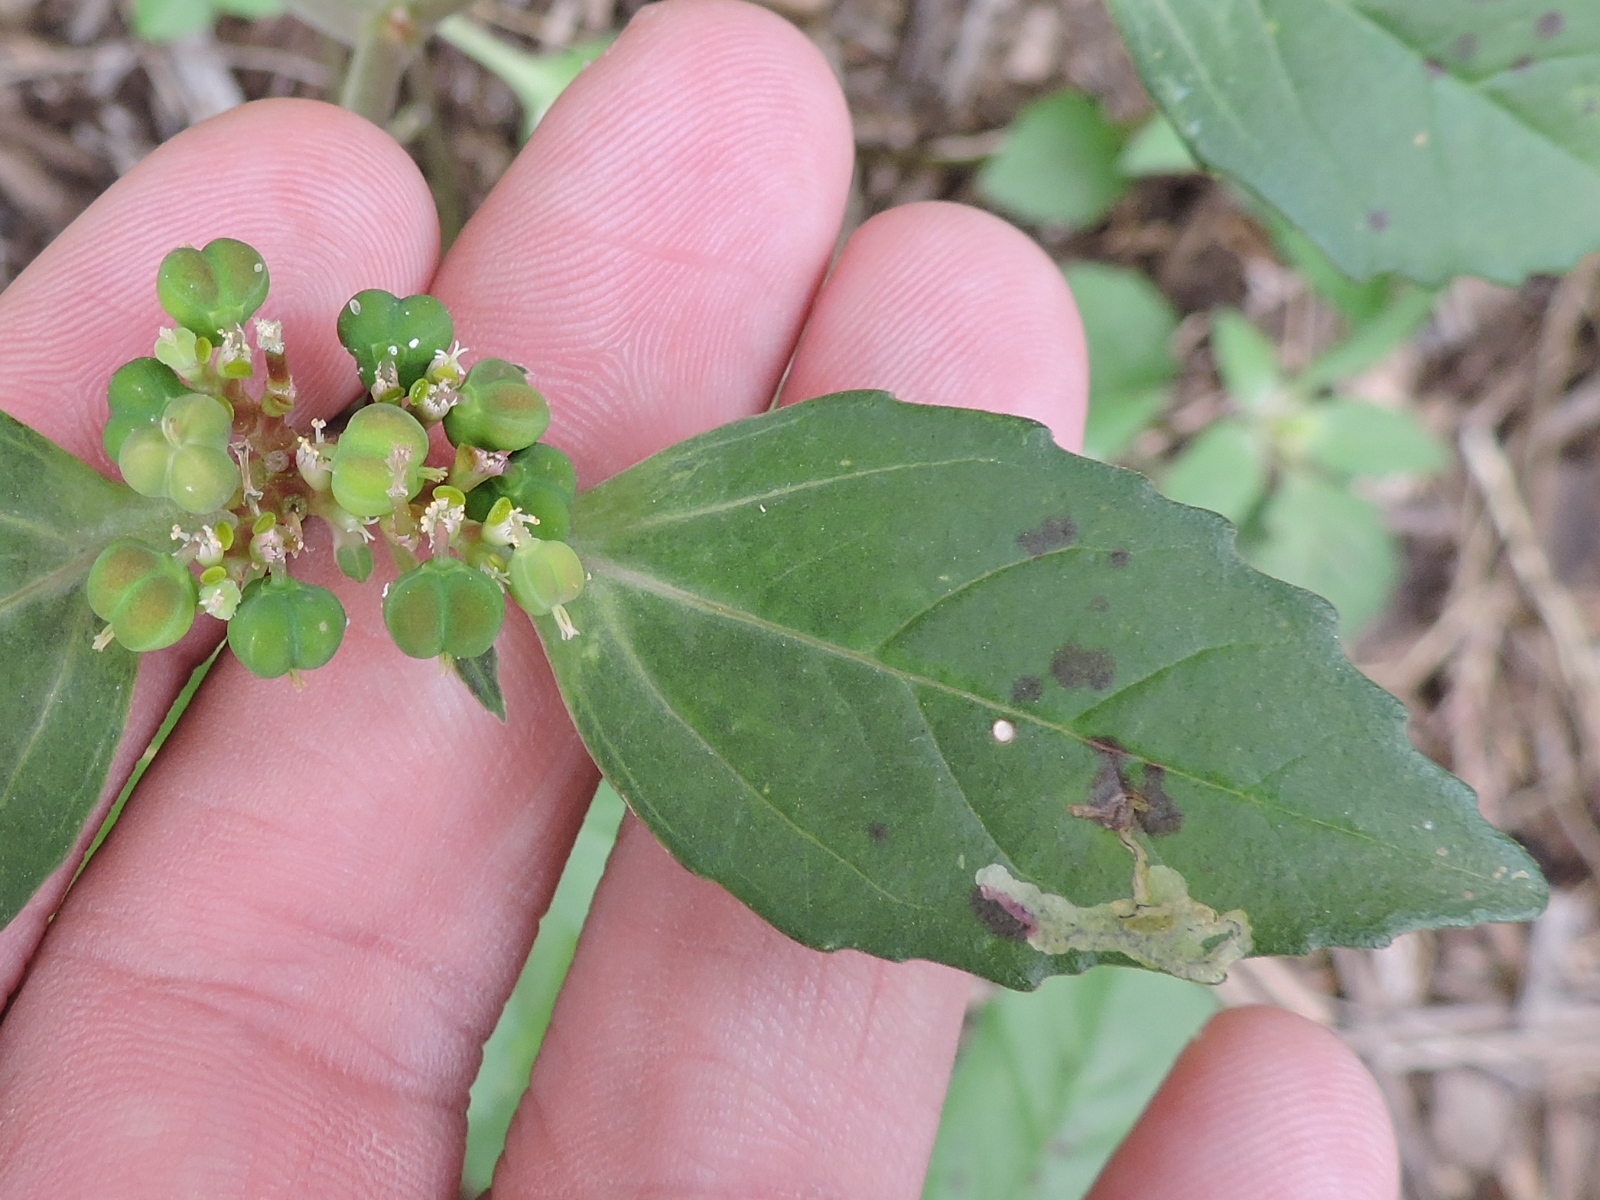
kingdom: Plantae
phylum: Tracheophyta
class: Magnoliopsida
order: Malpighiales
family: Euphorbiaceae
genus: Euphorbia
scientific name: Euphorbia dentata
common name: Dentate spurge
